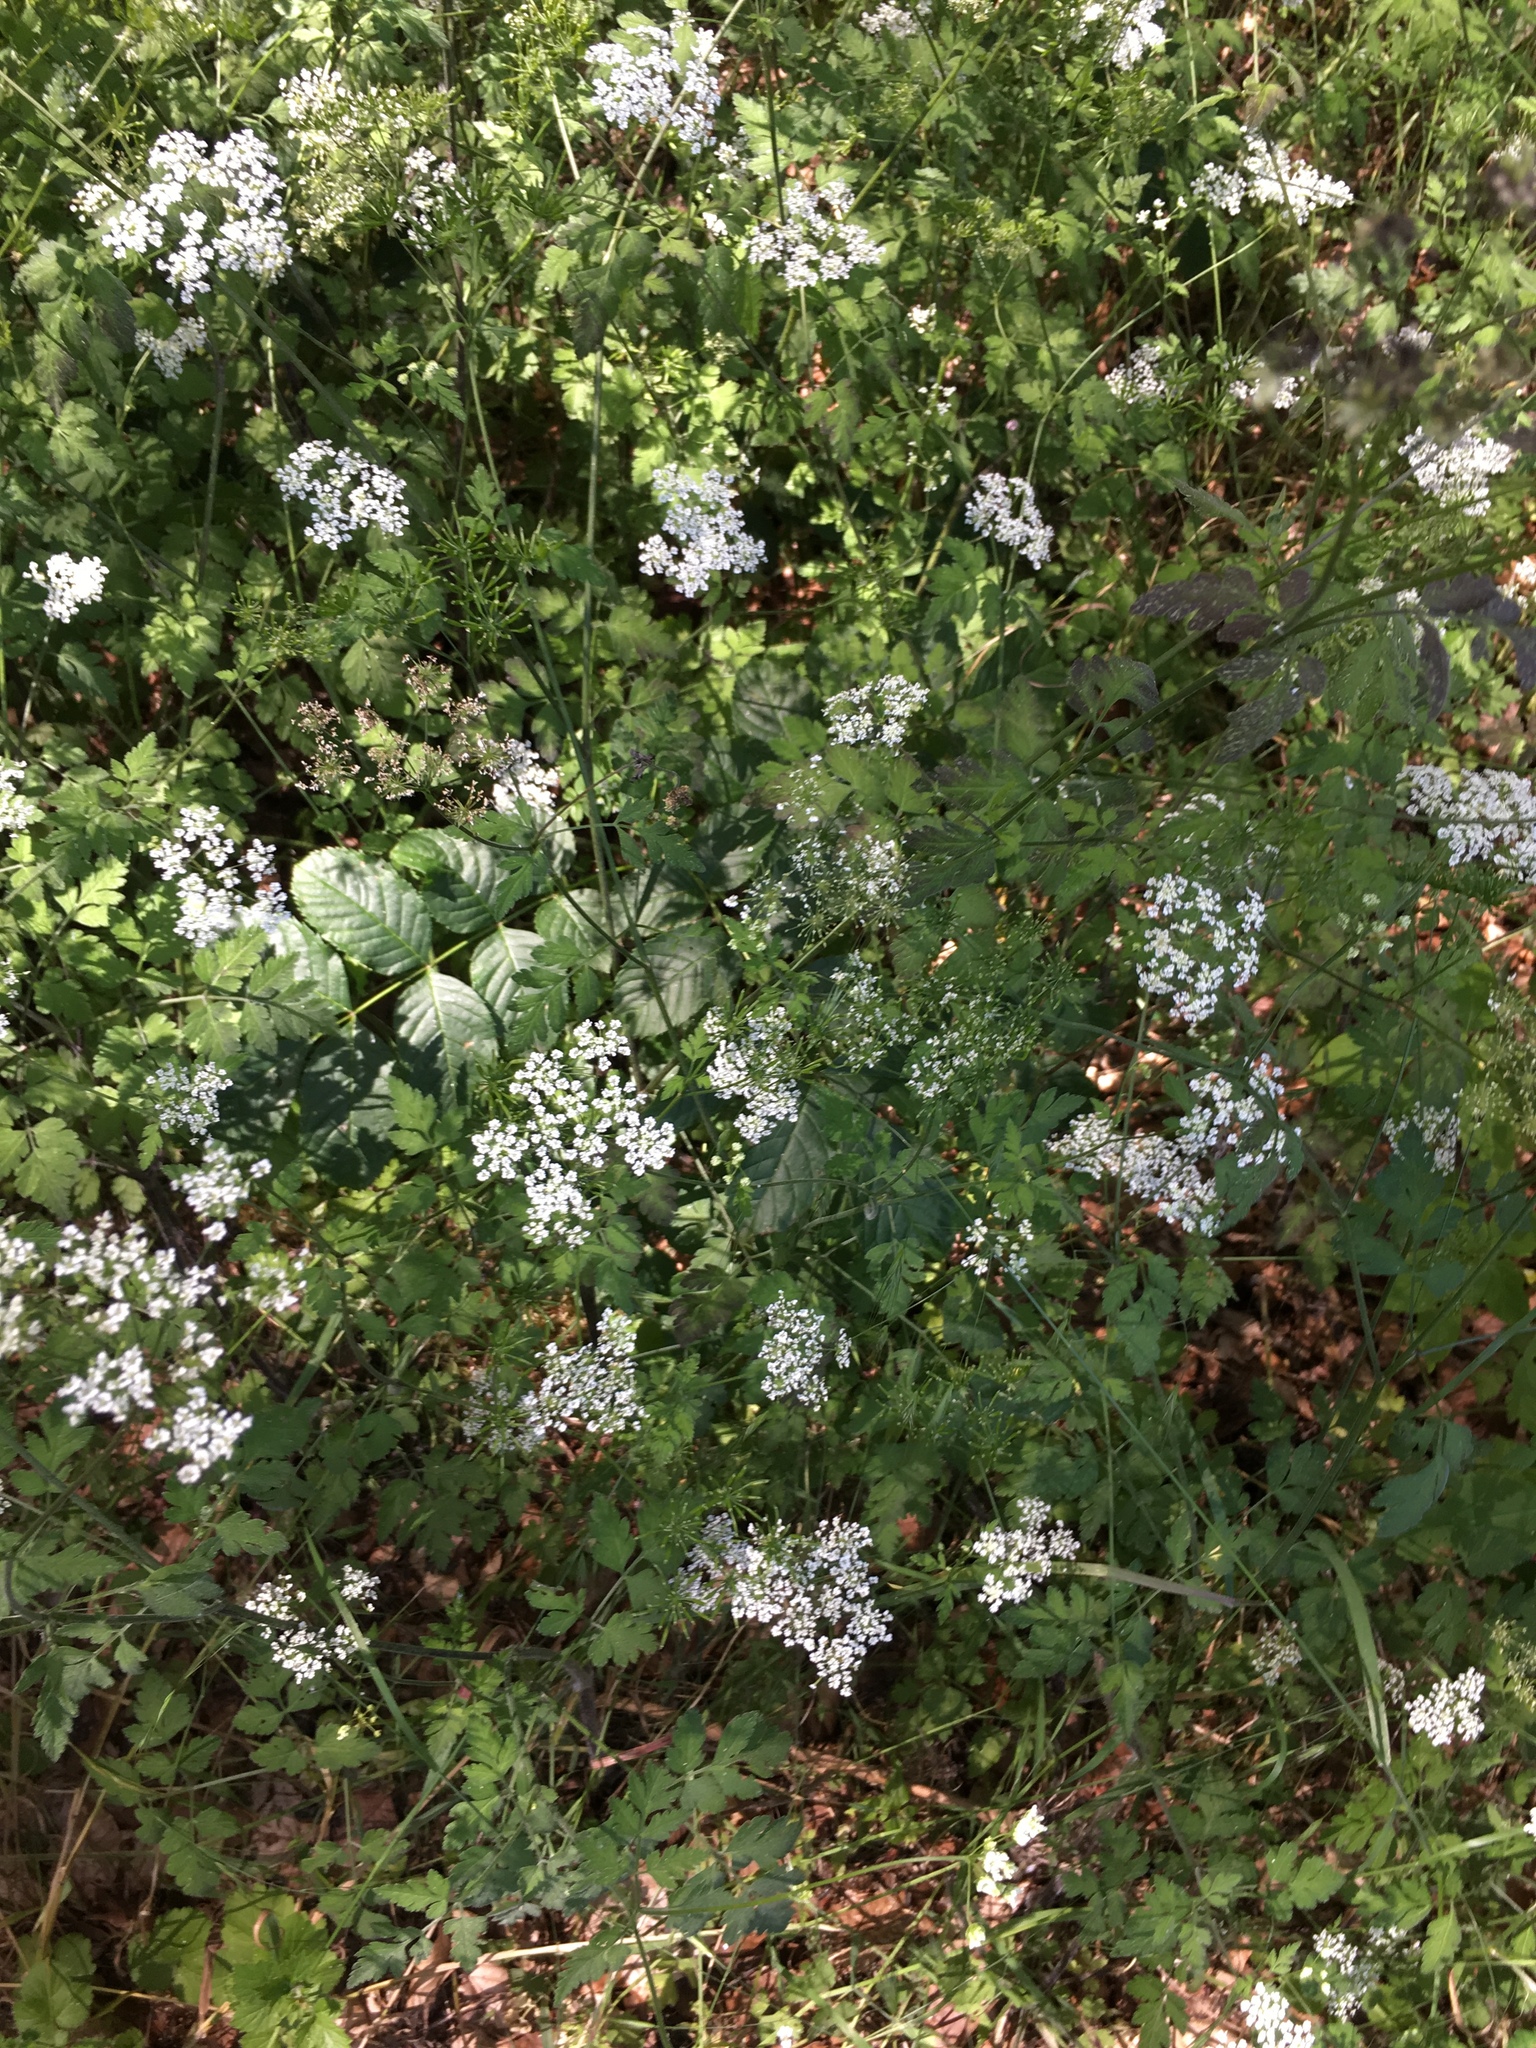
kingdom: Plantae
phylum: Tracheophyta
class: Magnoliopsida
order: Apiales
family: Apiaceae
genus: Chaerophyllum
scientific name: Chaerophyllum temulum
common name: Rough chervil
